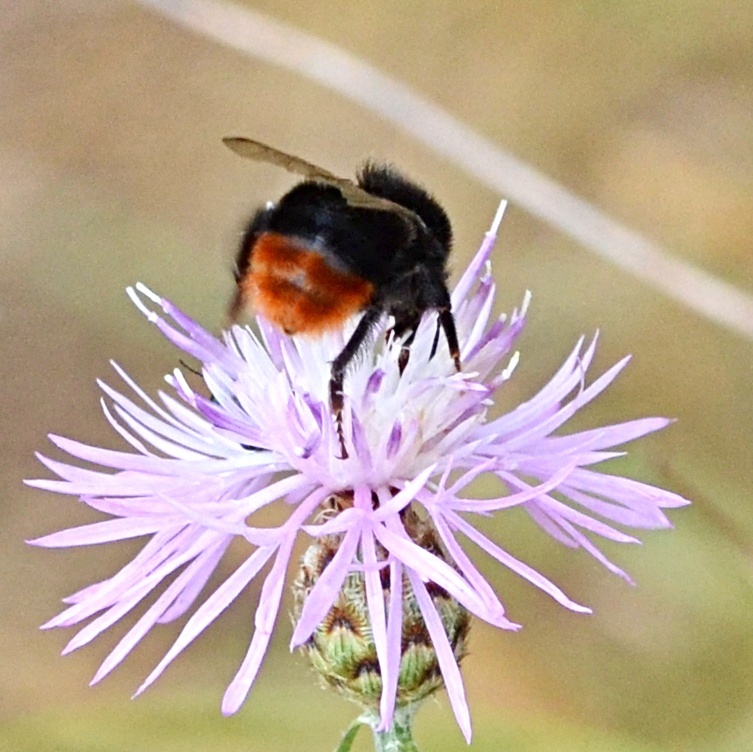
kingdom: Animalia
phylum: Arthropoda
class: Insecta
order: Hymenoptera
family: Apidae
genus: Bombus
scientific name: Bombus lapidarius
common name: Large red-tailed humble-bee
